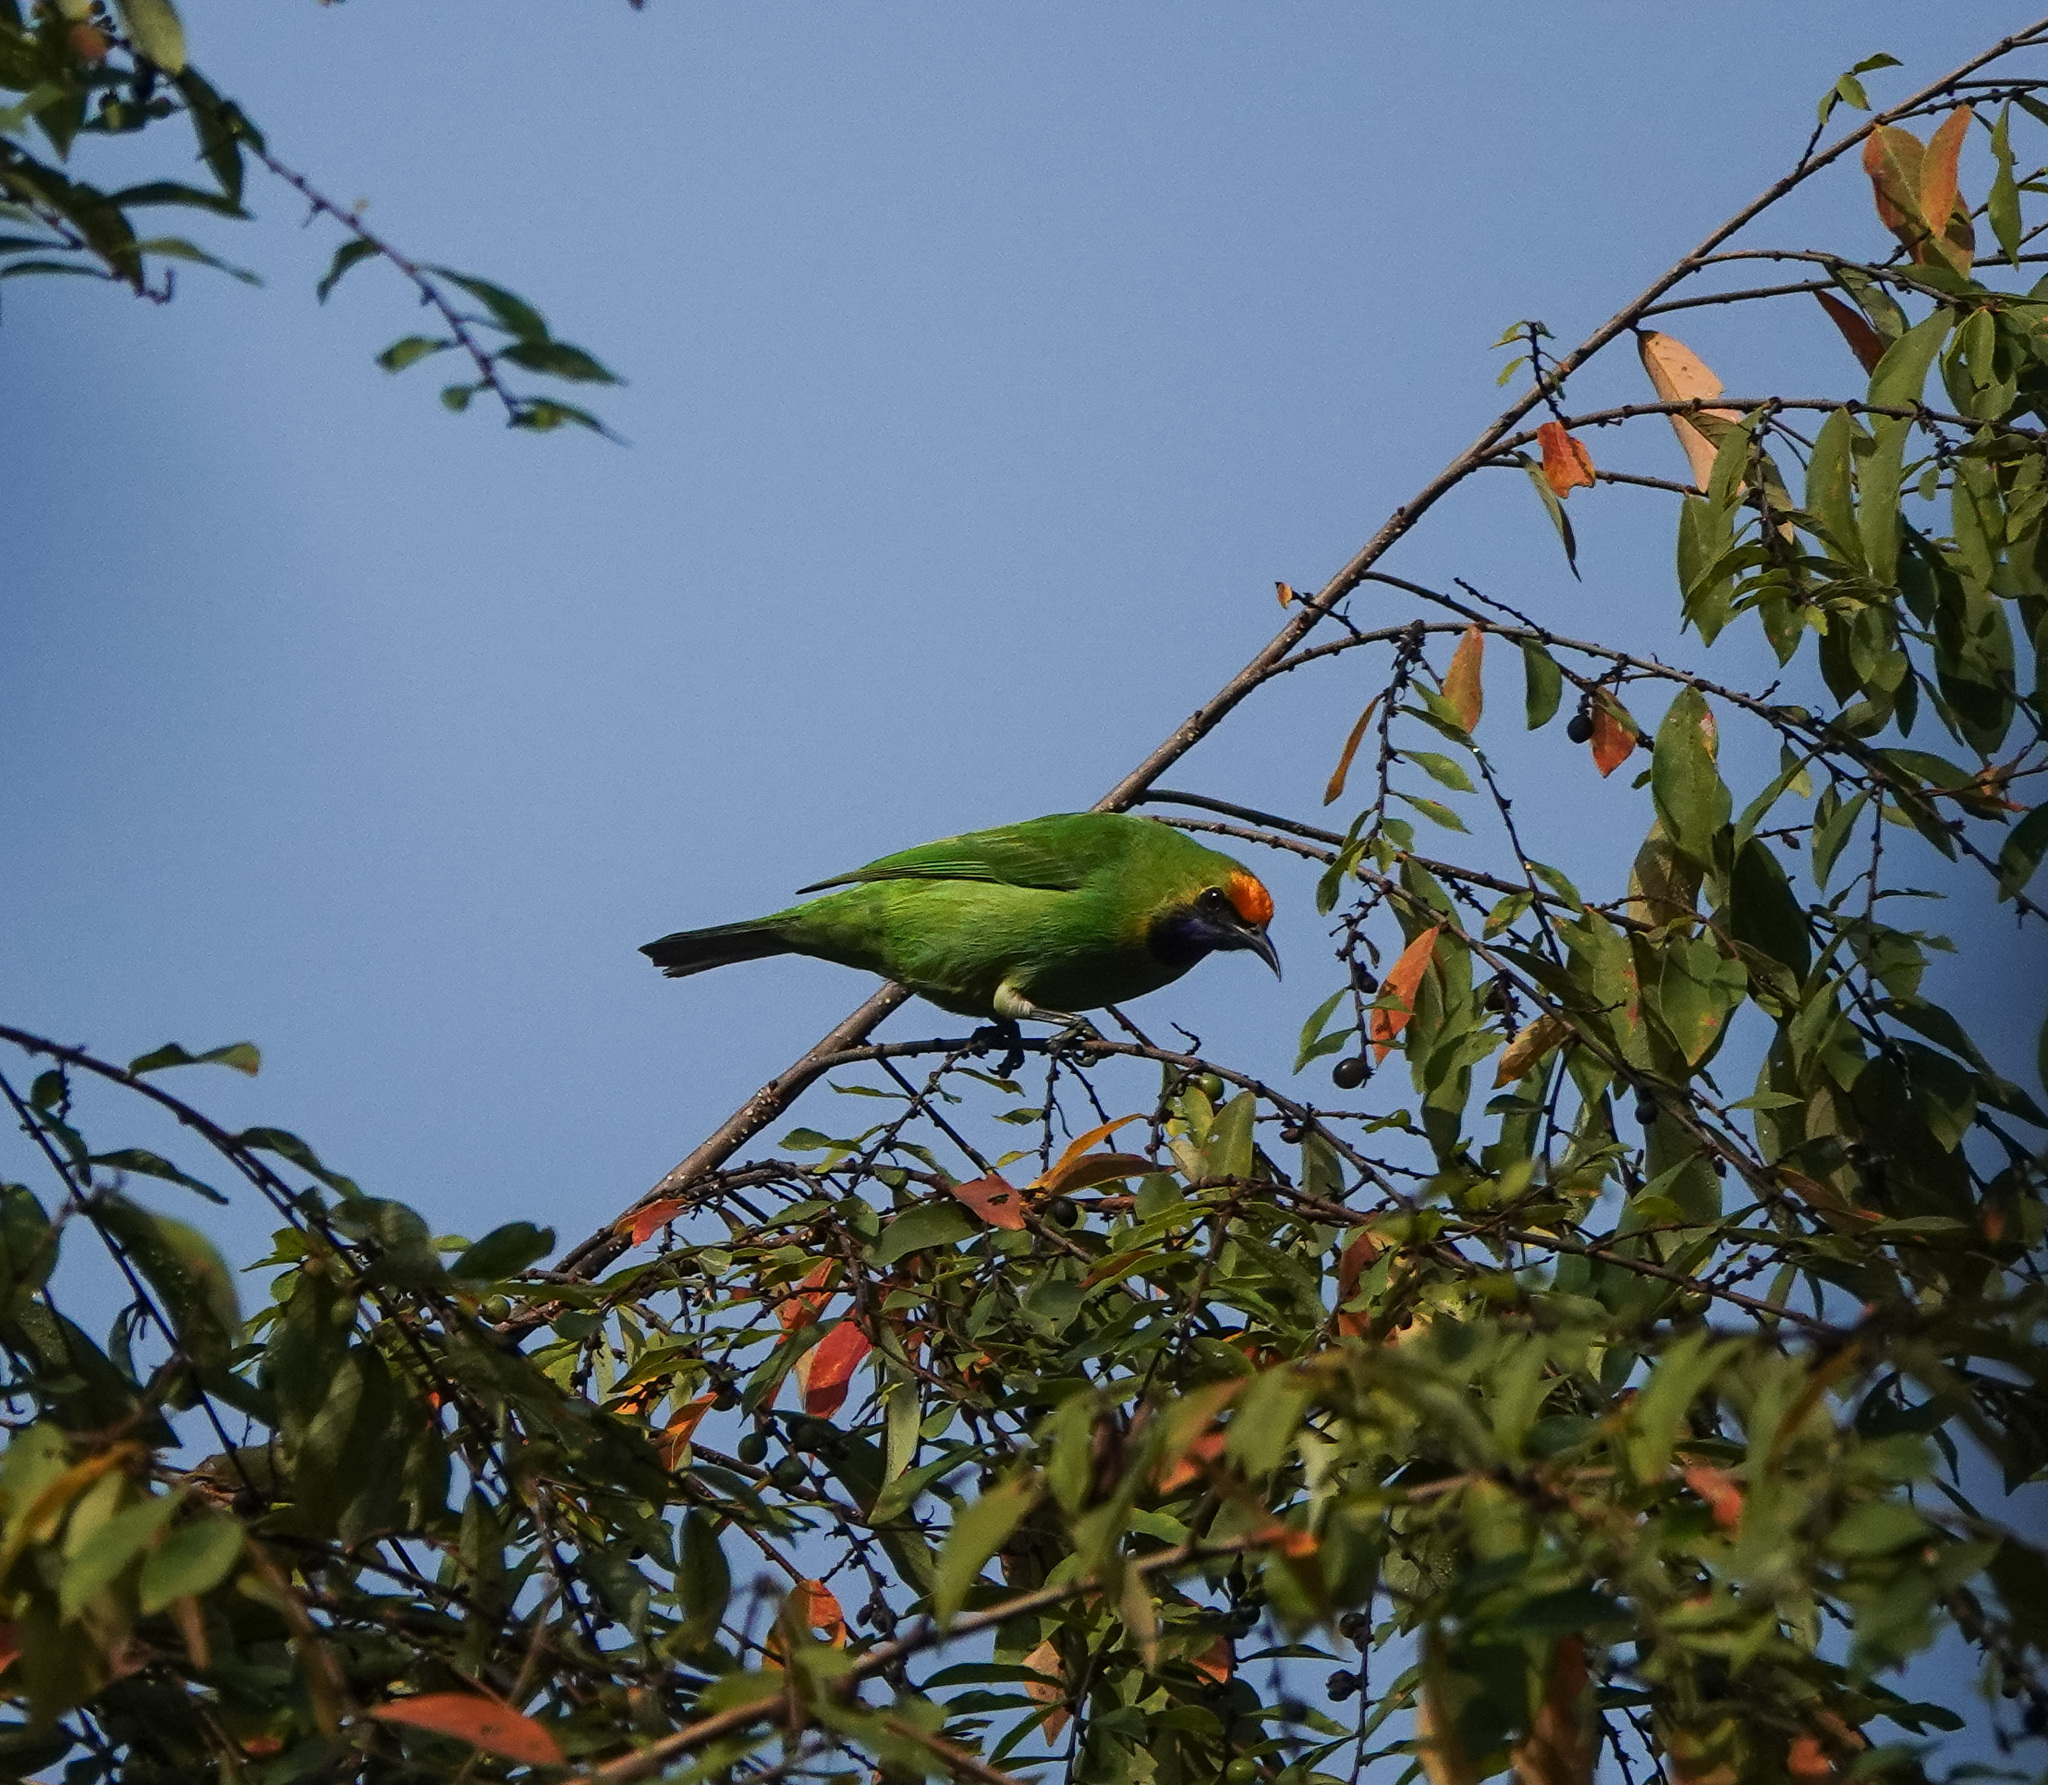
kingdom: Animalia
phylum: Chordata
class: Aves
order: Passeriformes
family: Chloropseidae
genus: Chloropsis
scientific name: Chloropsis aurifrons
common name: Golden-fronted leafbird
